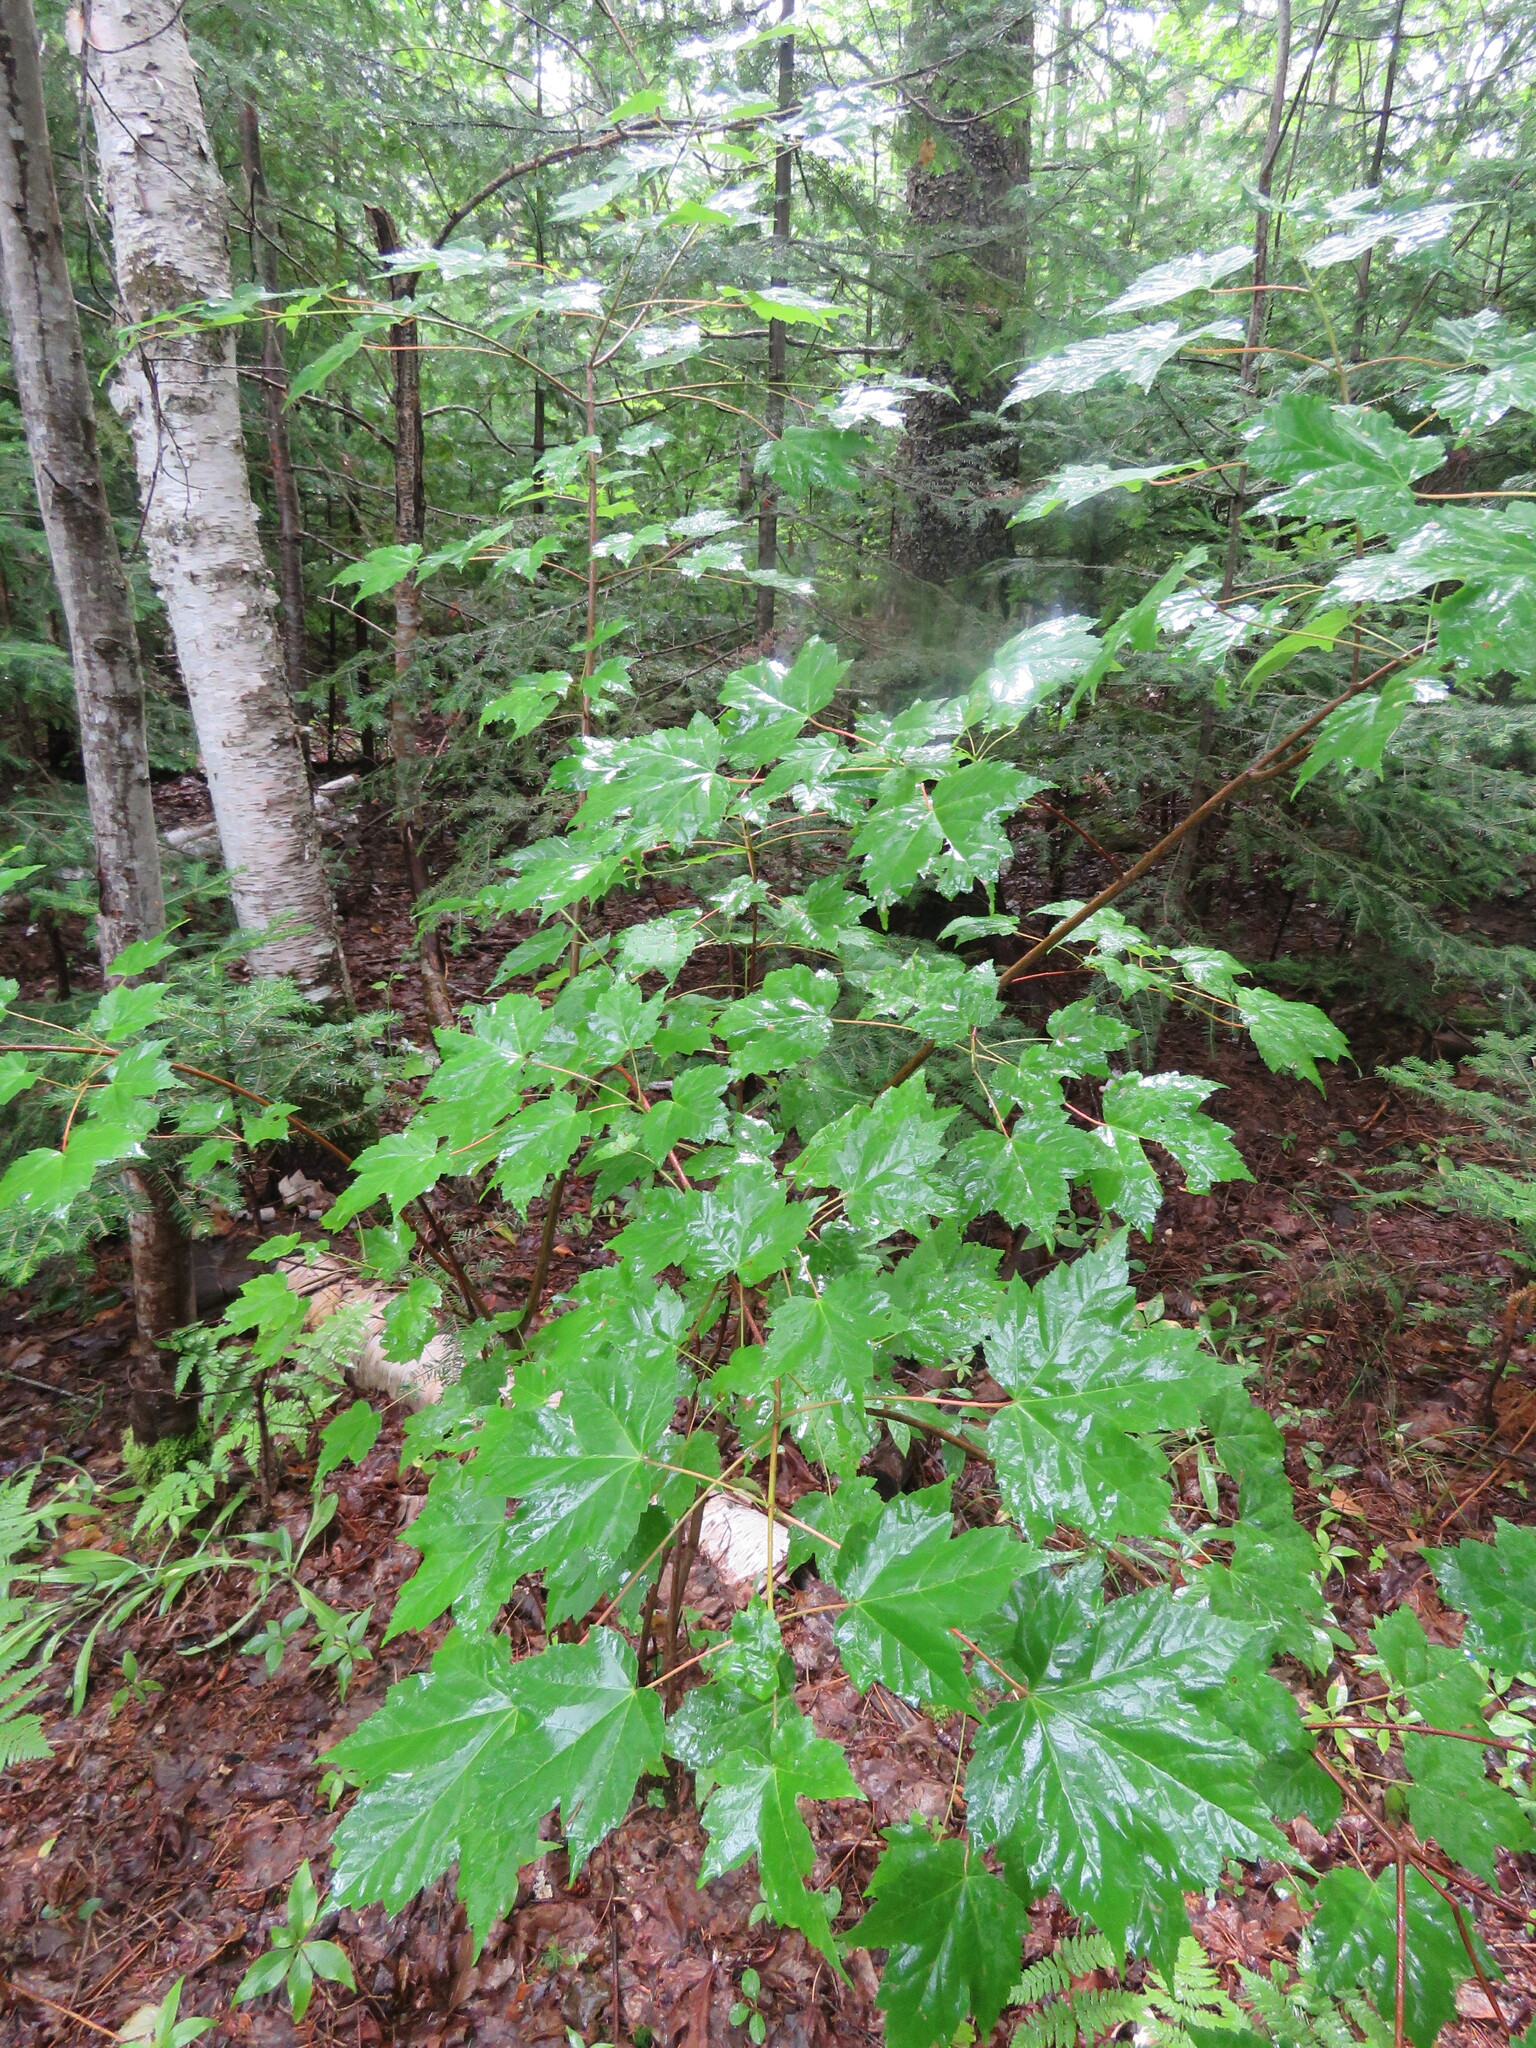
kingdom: Plantae
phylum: Tracheophyta
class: Magnoliopsida
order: Sapindales
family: Sapindaceae
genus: Acer
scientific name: Acer rubrum
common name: Red maple
